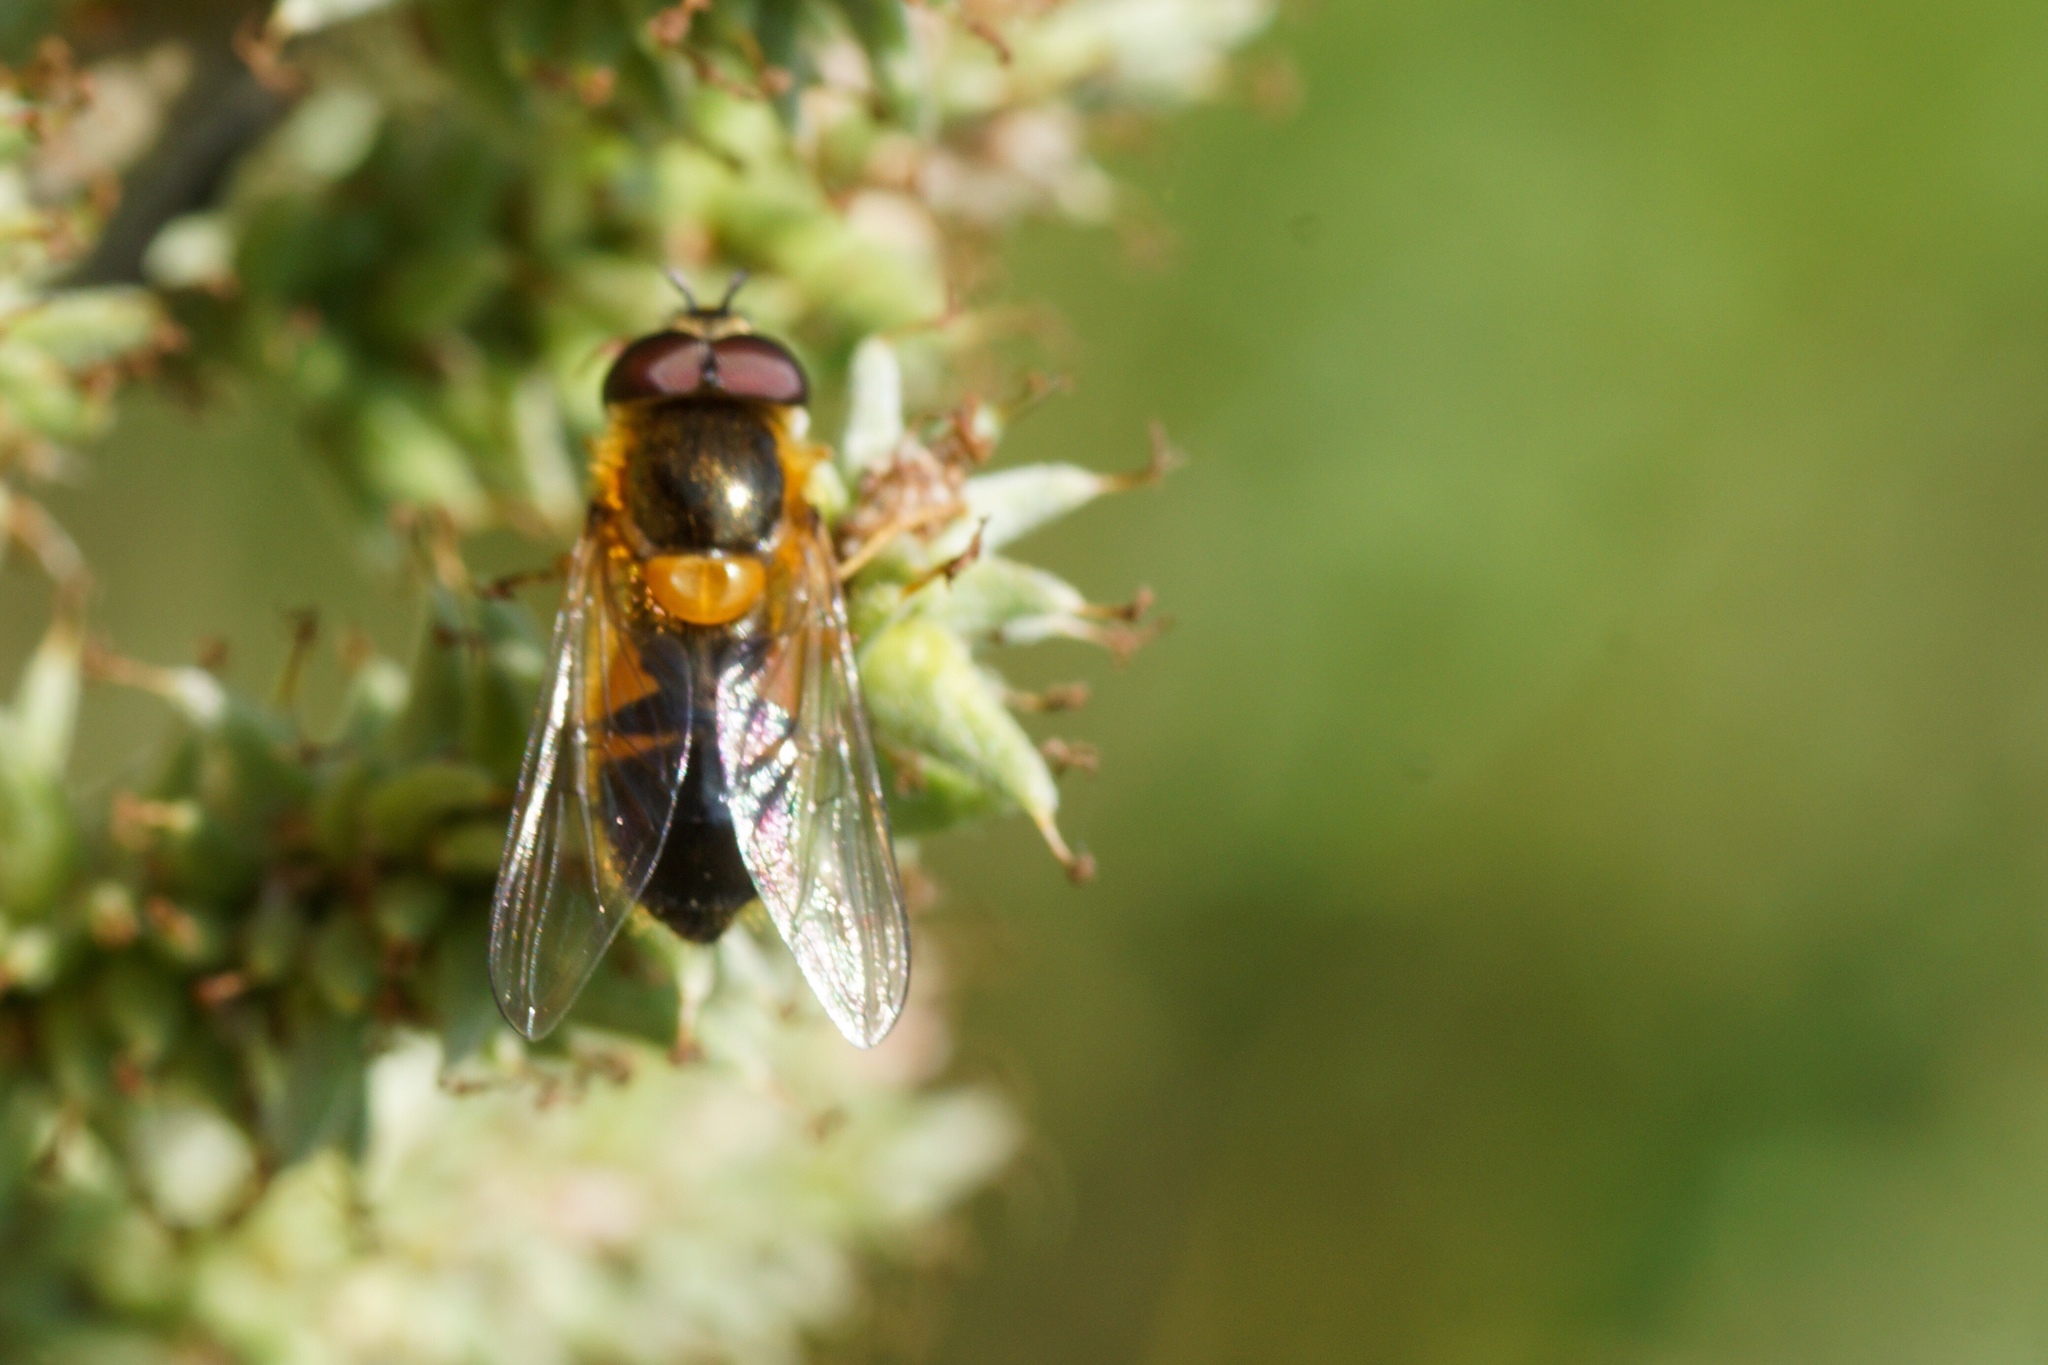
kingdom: Animalia
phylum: Arthropoda
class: Insecta
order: Diptera
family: Syrphidae
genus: Epistrophe
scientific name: Epistrophe eligans
